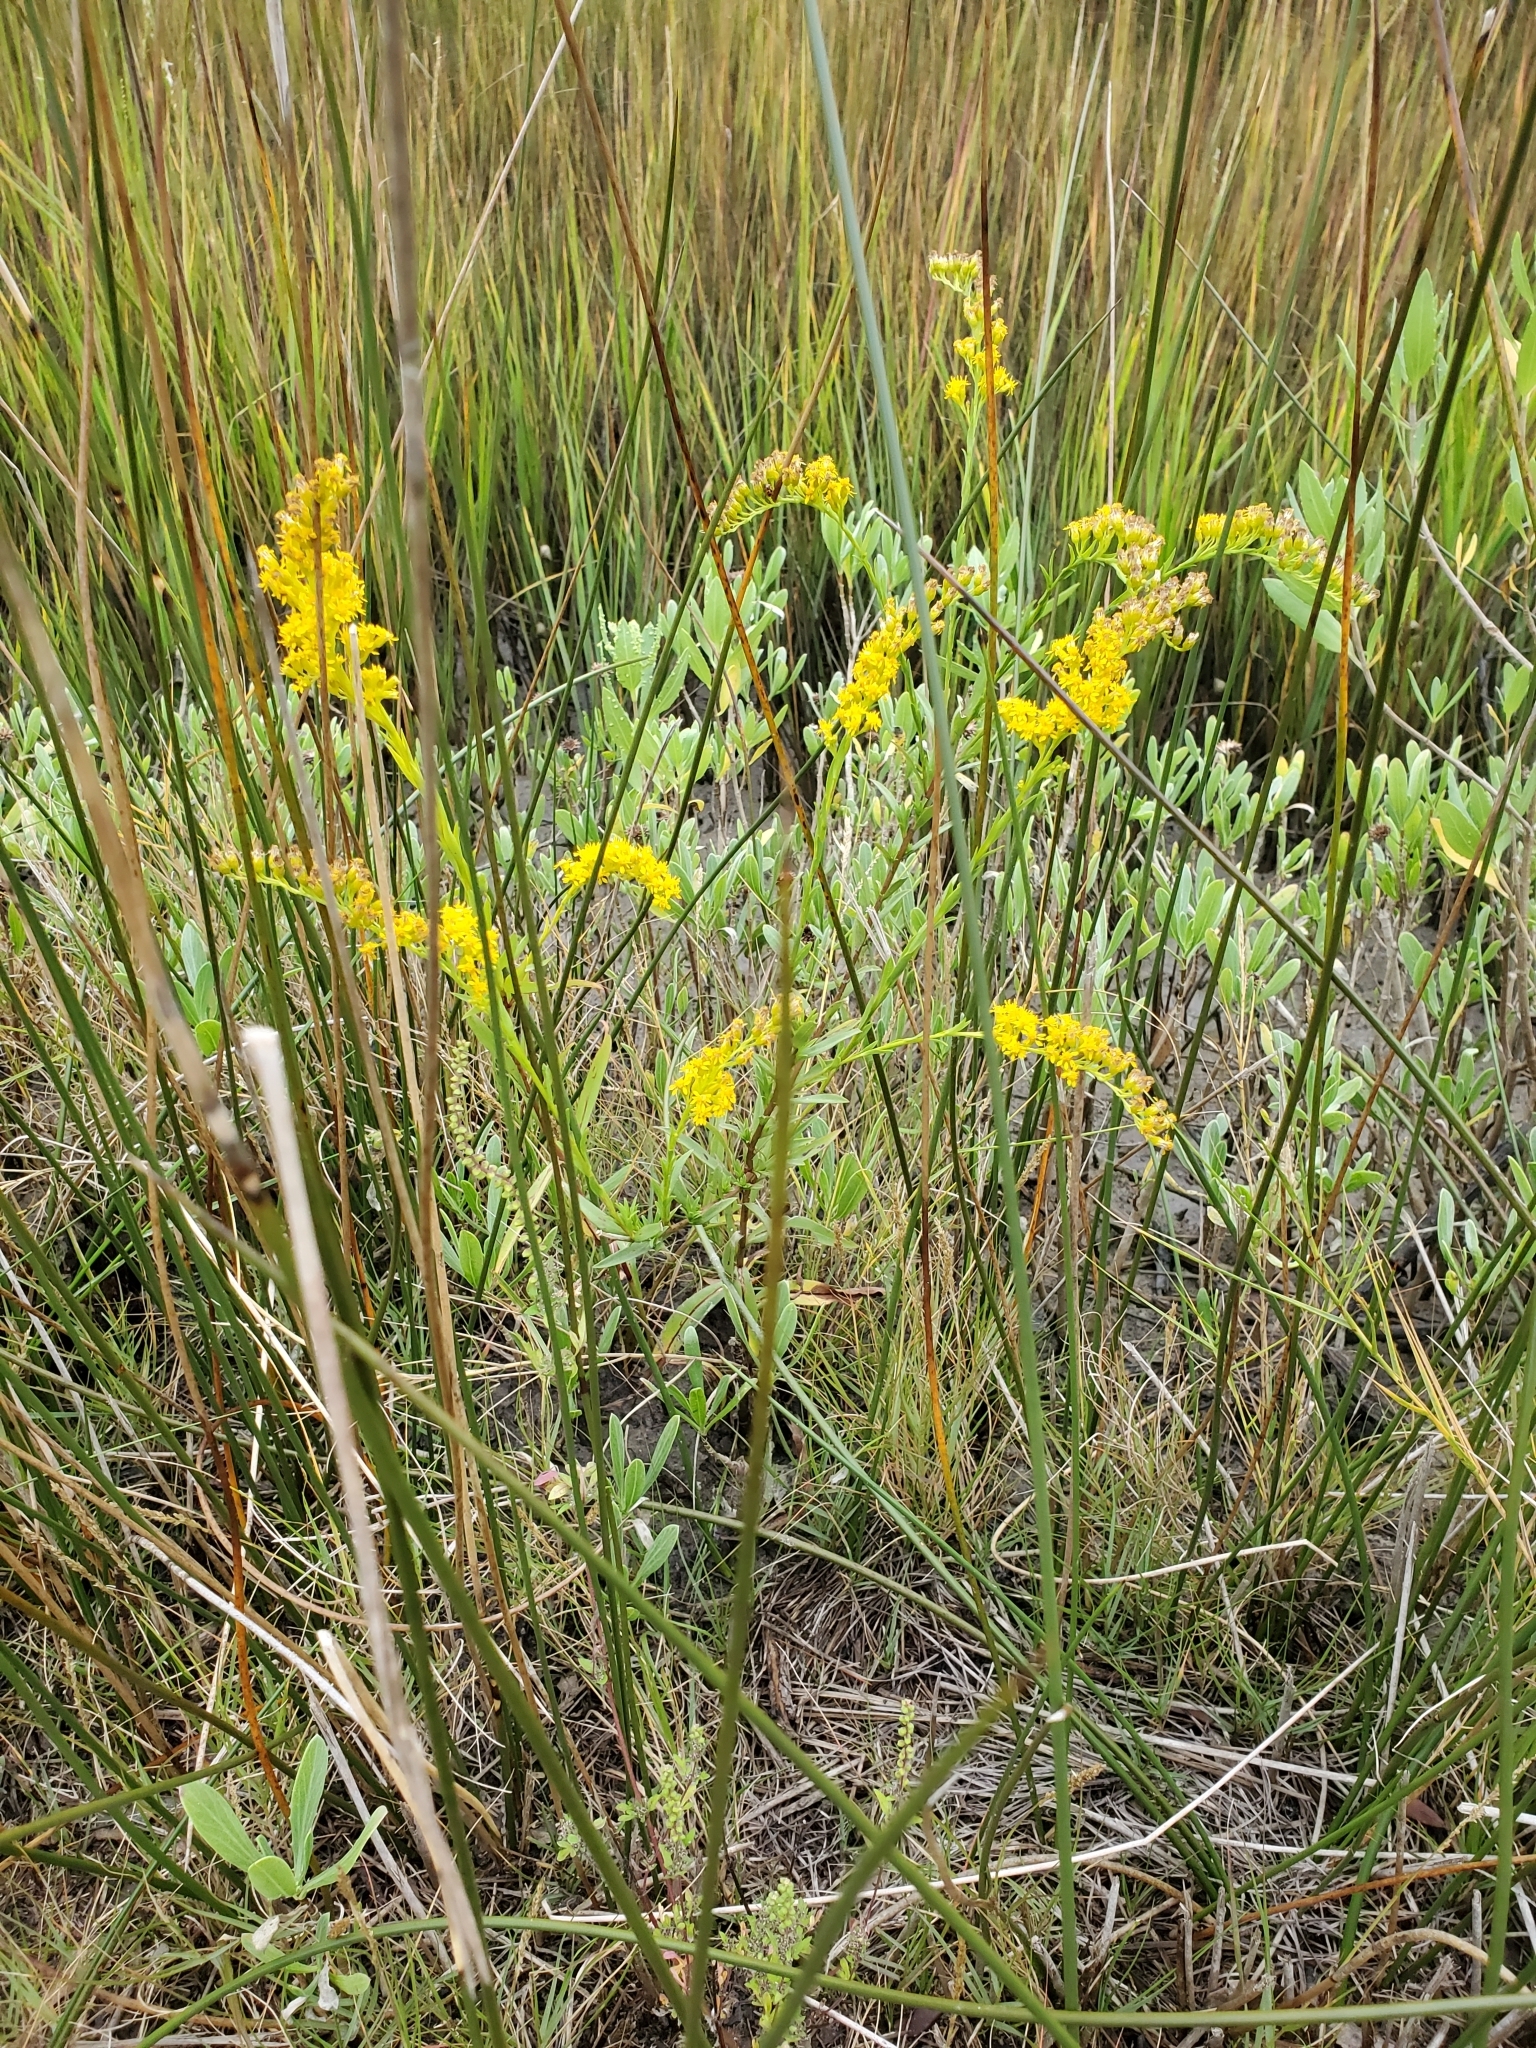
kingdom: Plantae
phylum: Tracheophyta
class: Magnoliopsida
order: Asterales
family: Asteraceae
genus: Solidago
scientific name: Solidago mexicana
